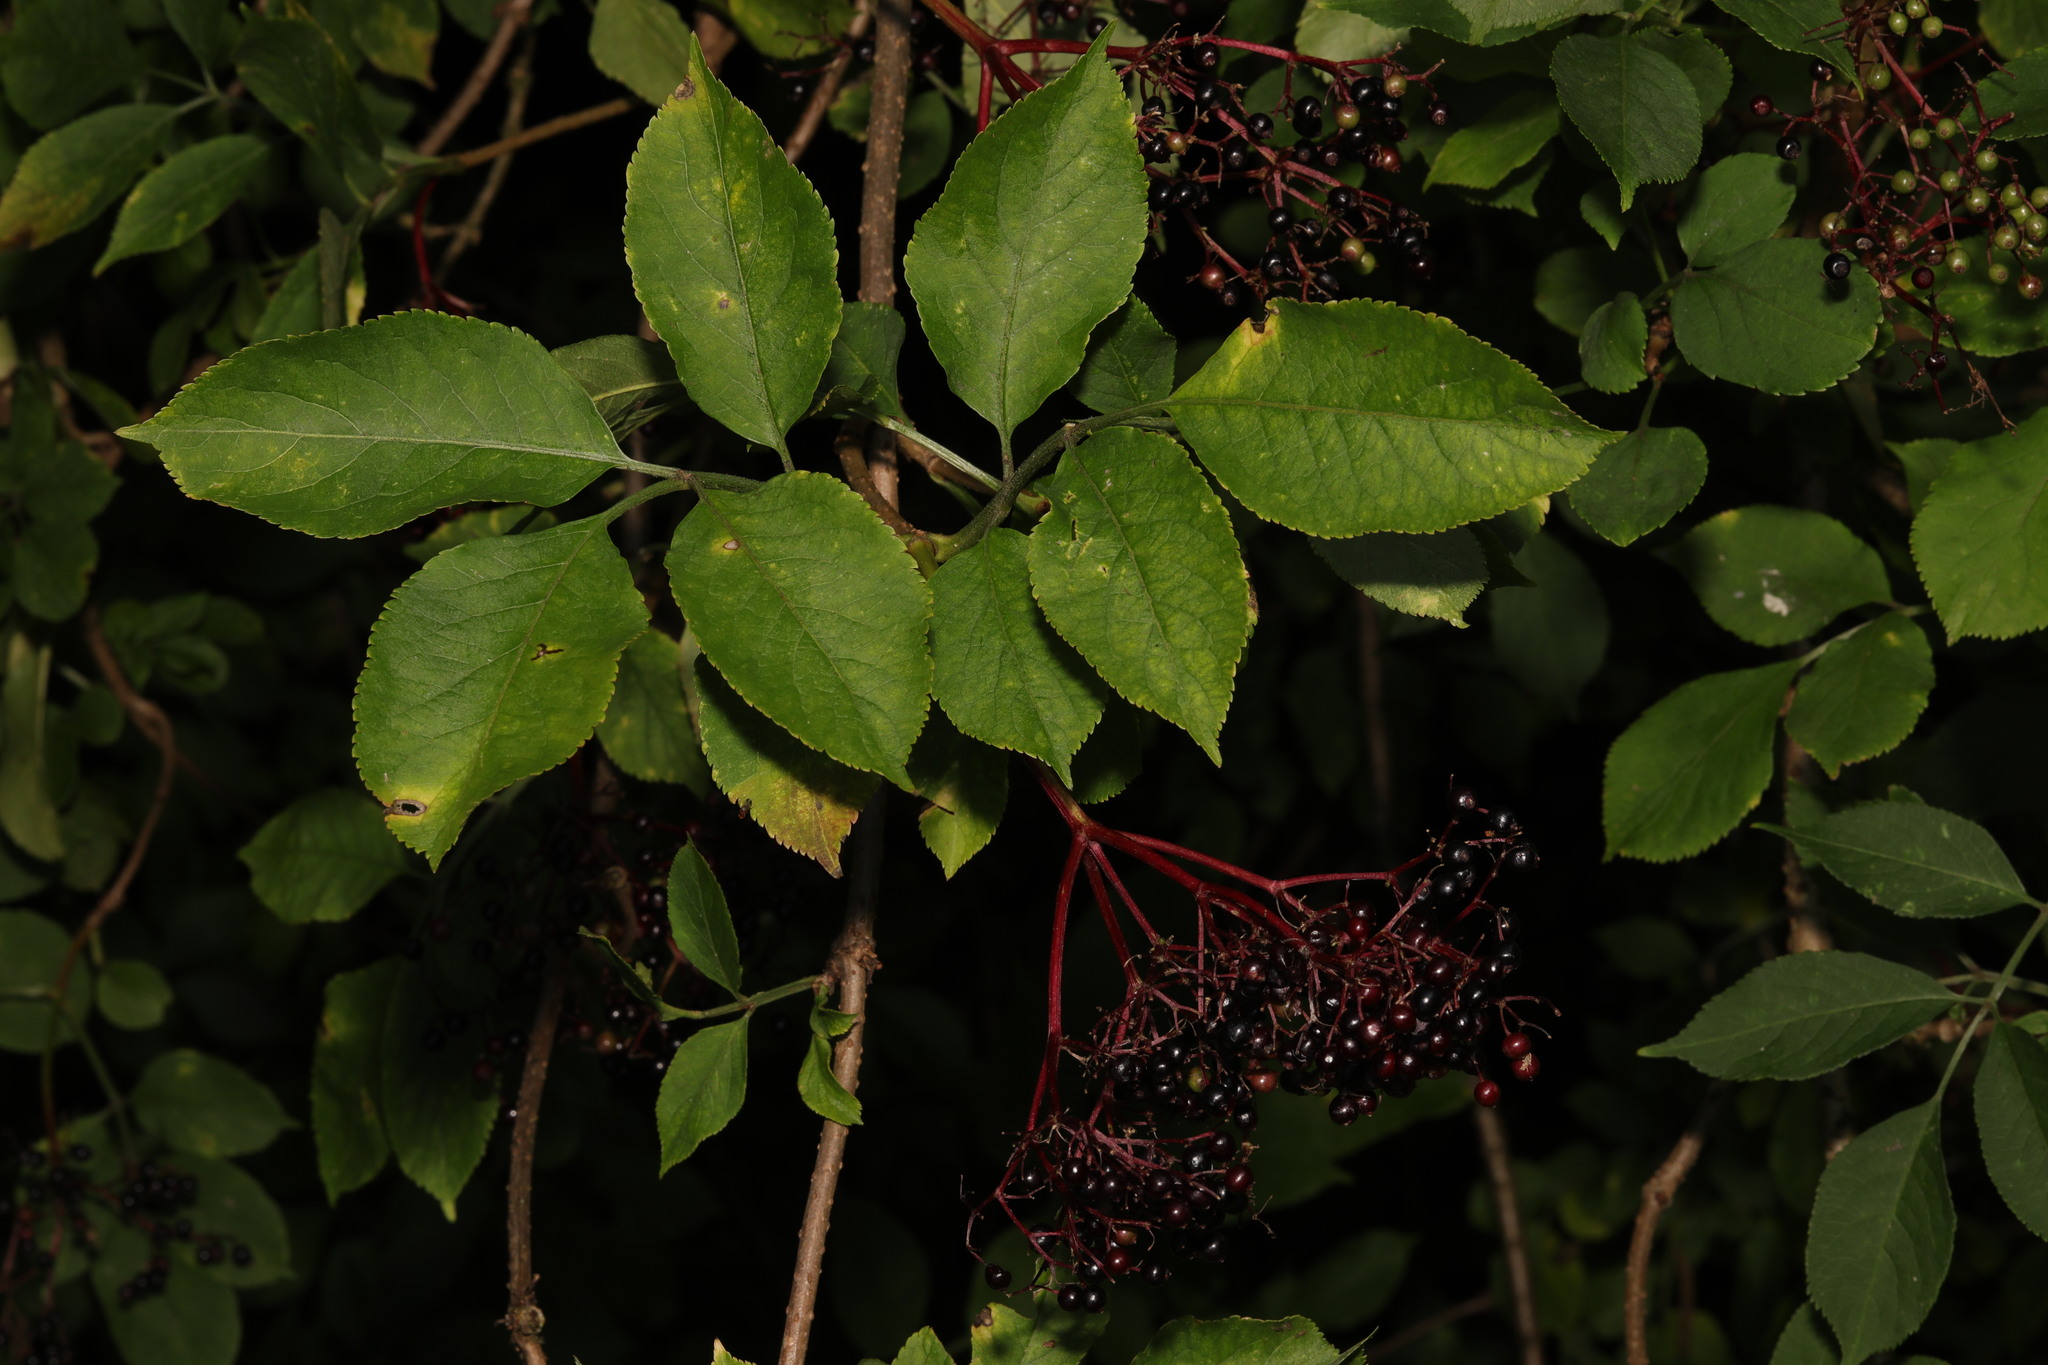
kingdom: Plantae
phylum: Tracheophyta
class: Magnoliopsida
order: Dipsacales
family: Viburnaceae
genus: Sambucus
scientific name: Sambucus nigra
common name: Elder
